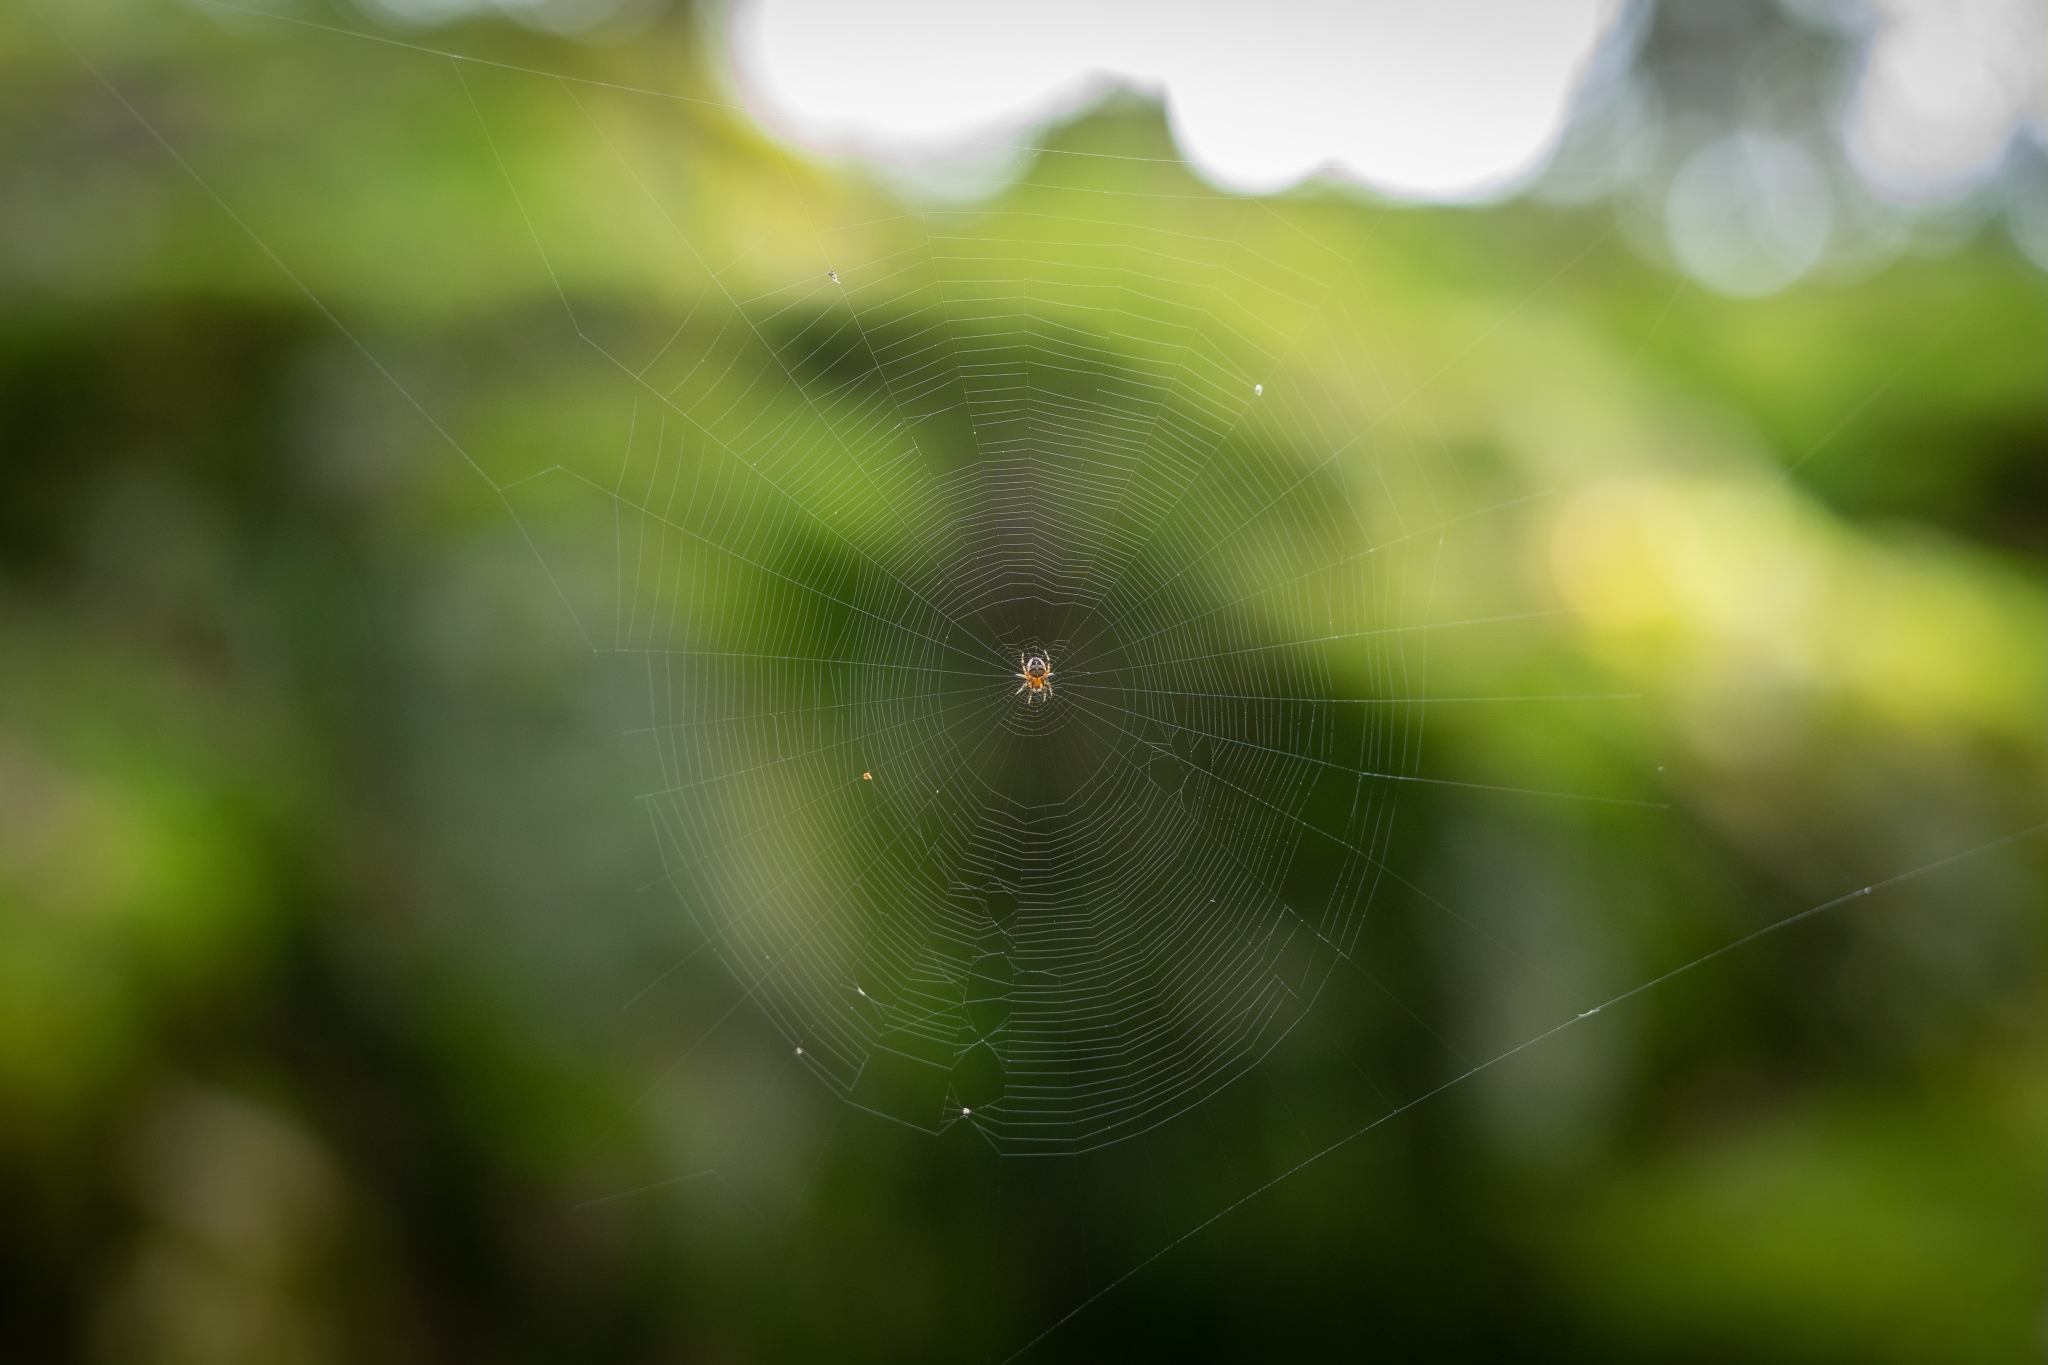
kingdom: Animalia
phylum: Arthropoda
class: Arachnida
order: Araneae
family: Araneidae
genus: Araneus
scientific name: Araneus diadematus
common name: Cross orbweaver
